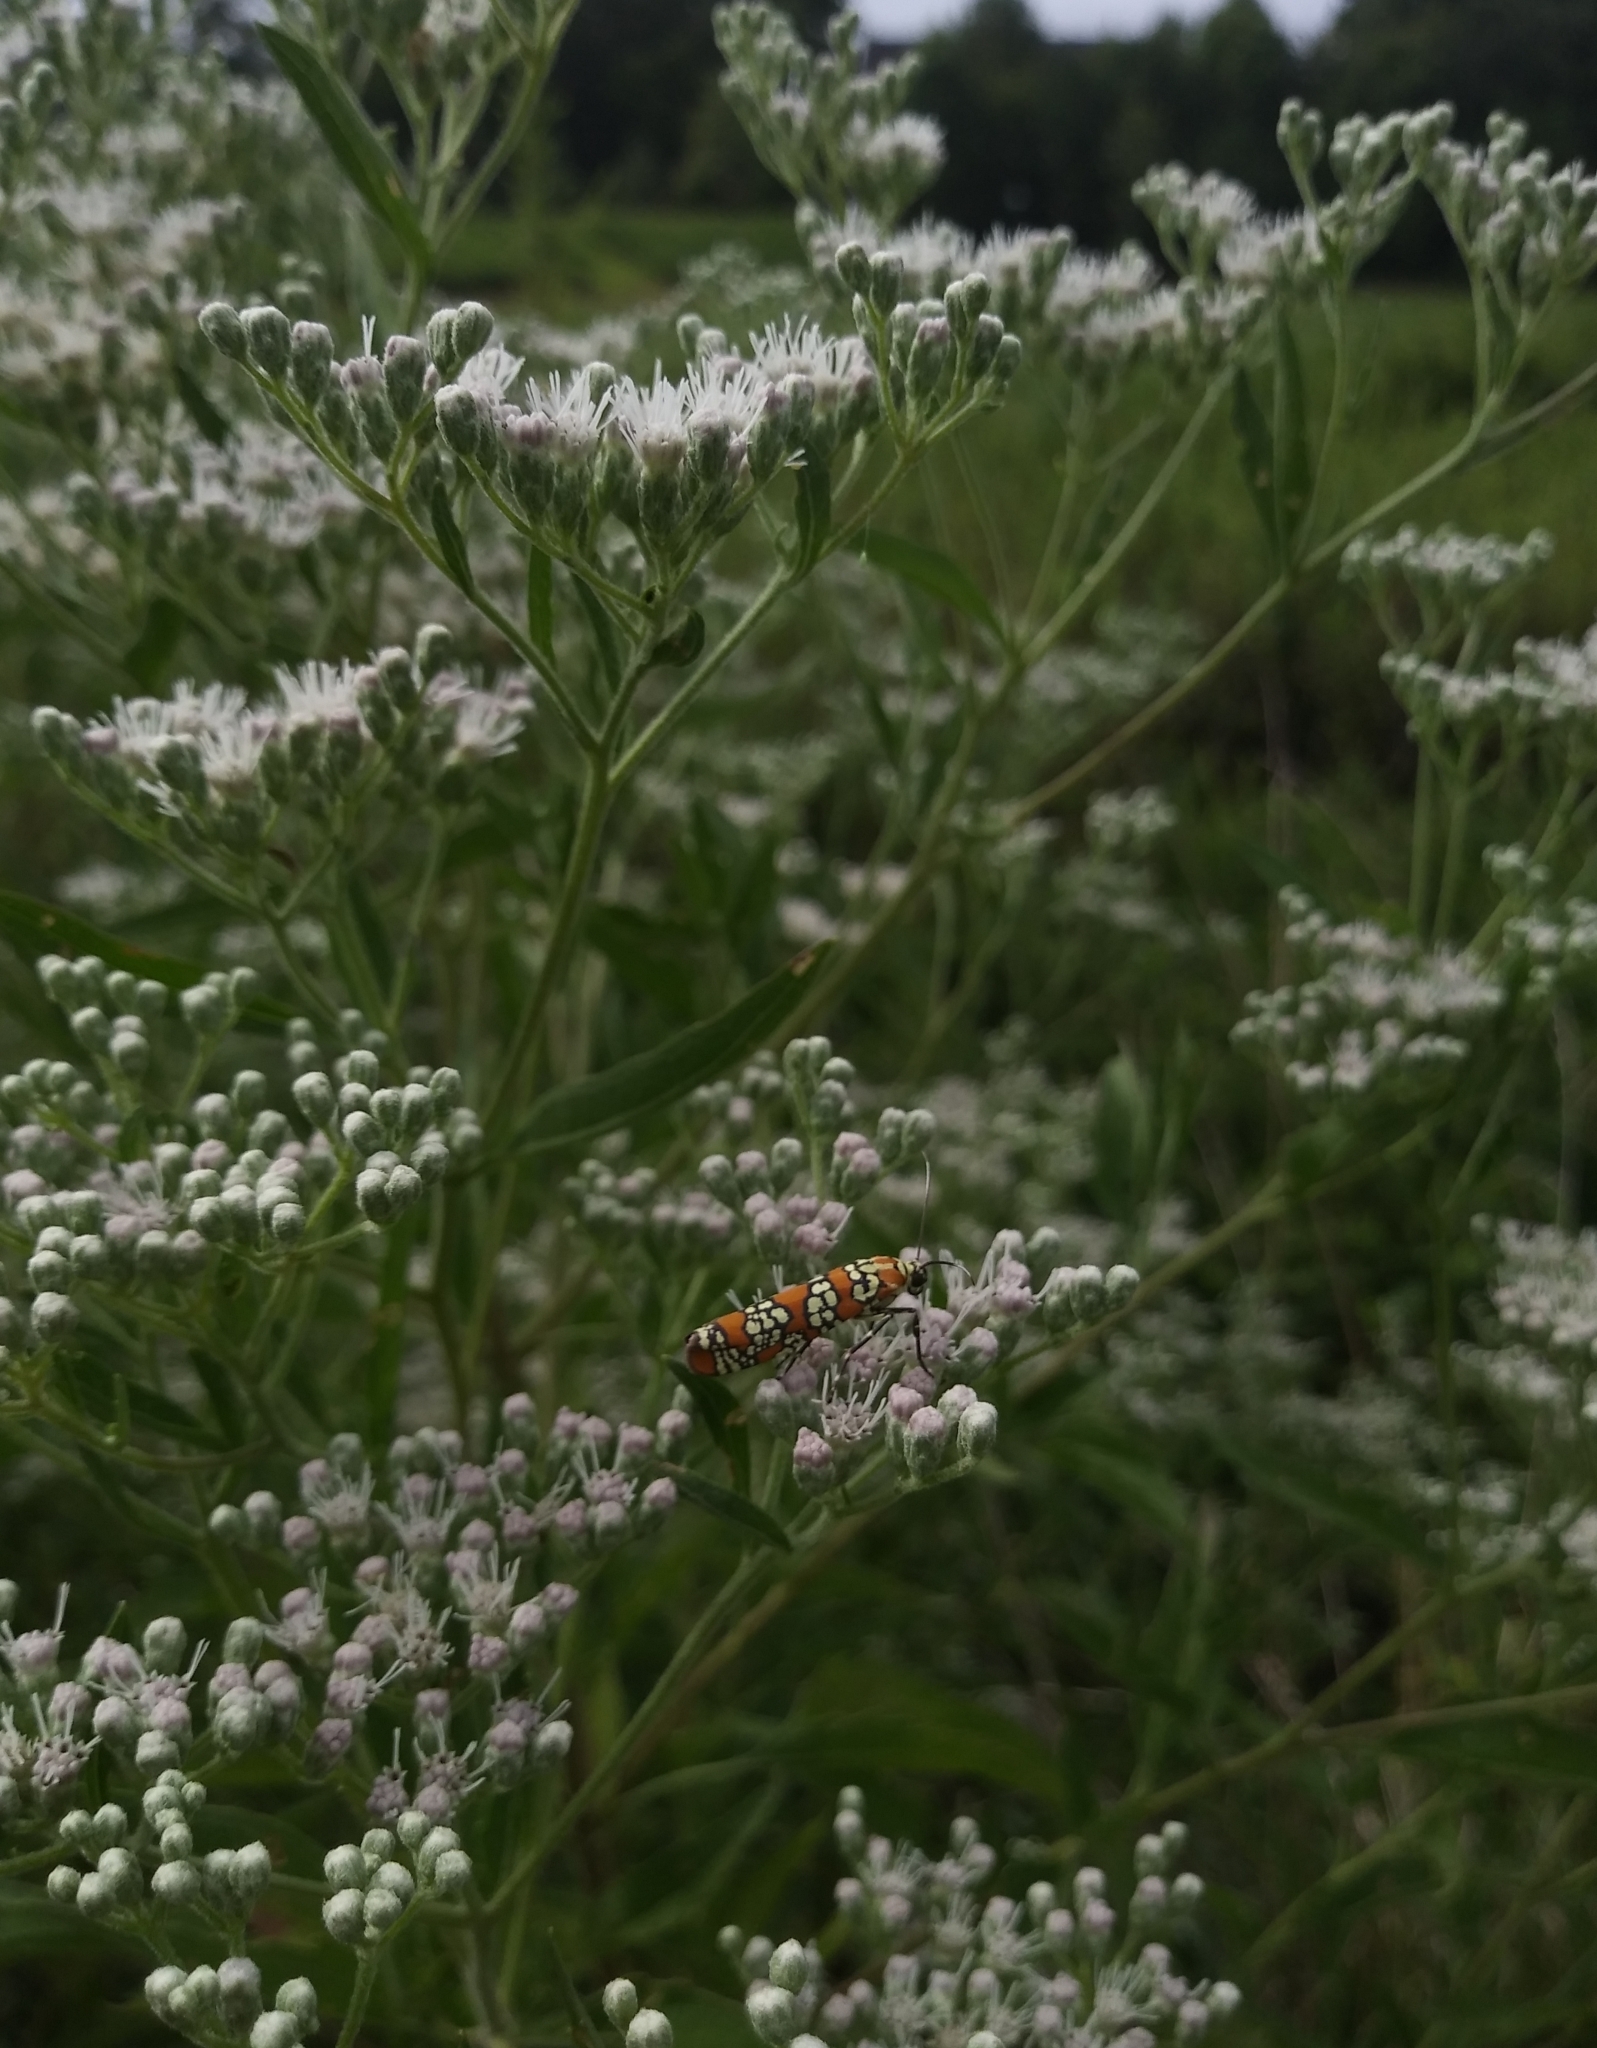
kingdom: Animalia
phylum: Arthropoda
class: Insecta
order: Lepidoptera
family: Attevidae
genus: Atteva
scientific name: Atteva punctella
